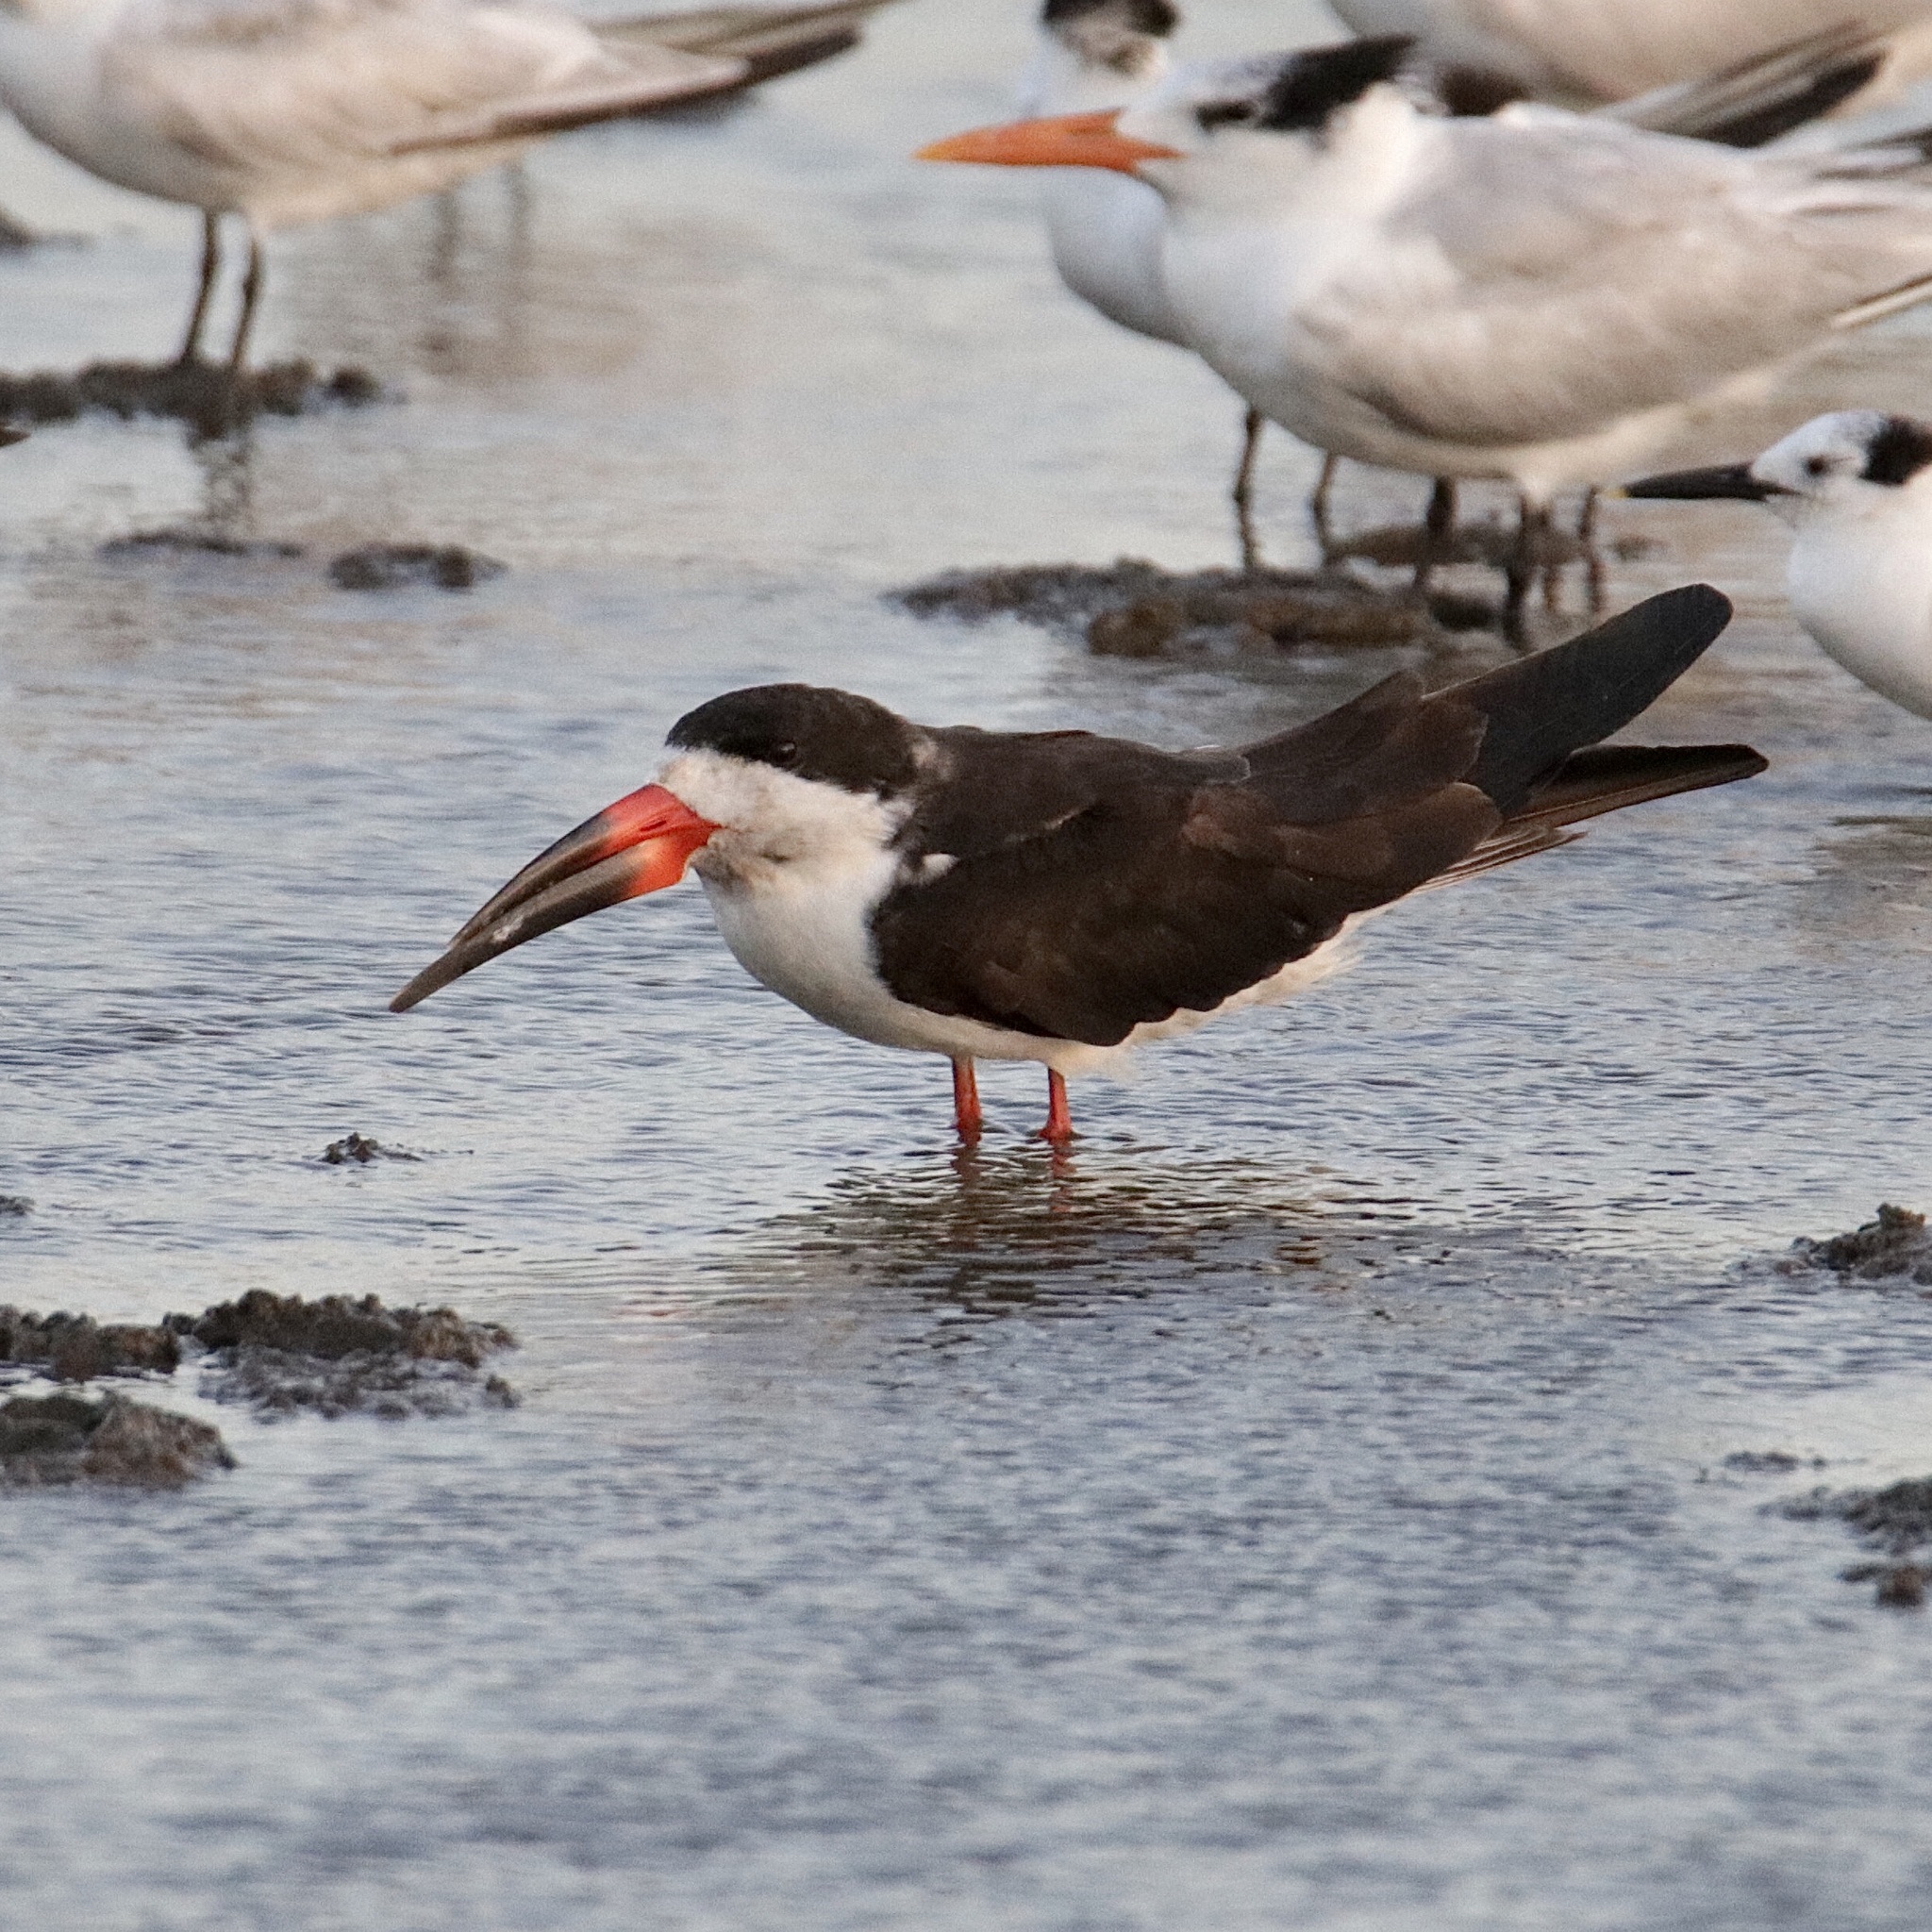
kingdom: Animalia
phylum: Chordata
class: Aves
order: Charadriiformes
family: Laridae
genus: Rynchops
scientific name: Rynchops niger
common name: Black skimmer
